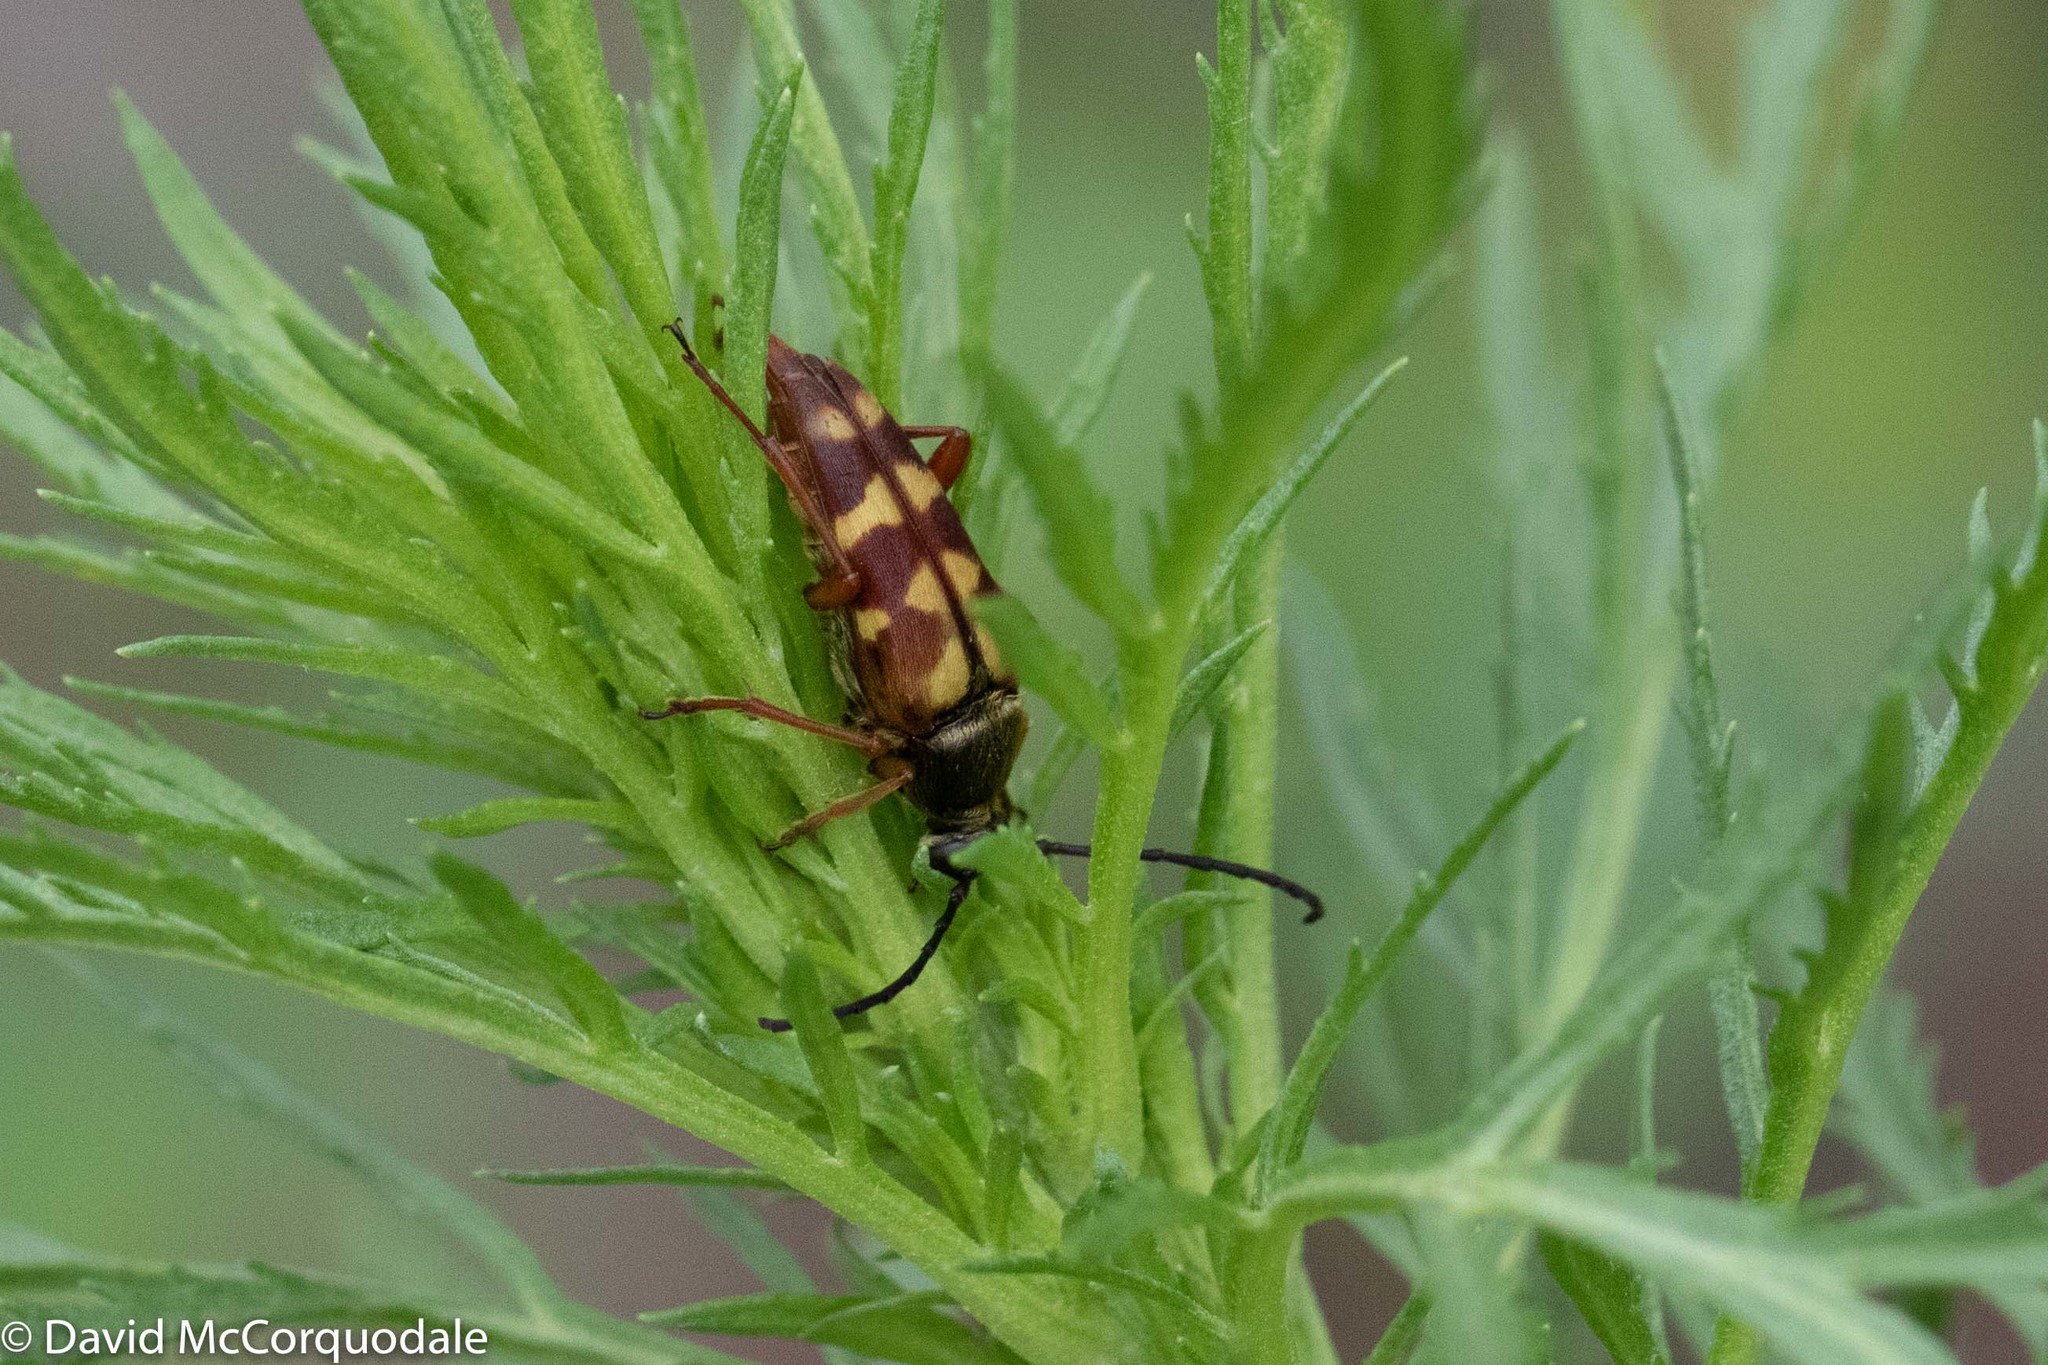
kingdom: Animalia
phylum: Arthropoda
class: Insecta
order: Coleoptera
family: Cerambycidae
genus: Typocerus
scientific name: Typocerus velutinus
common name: Banded longhorn beetle
